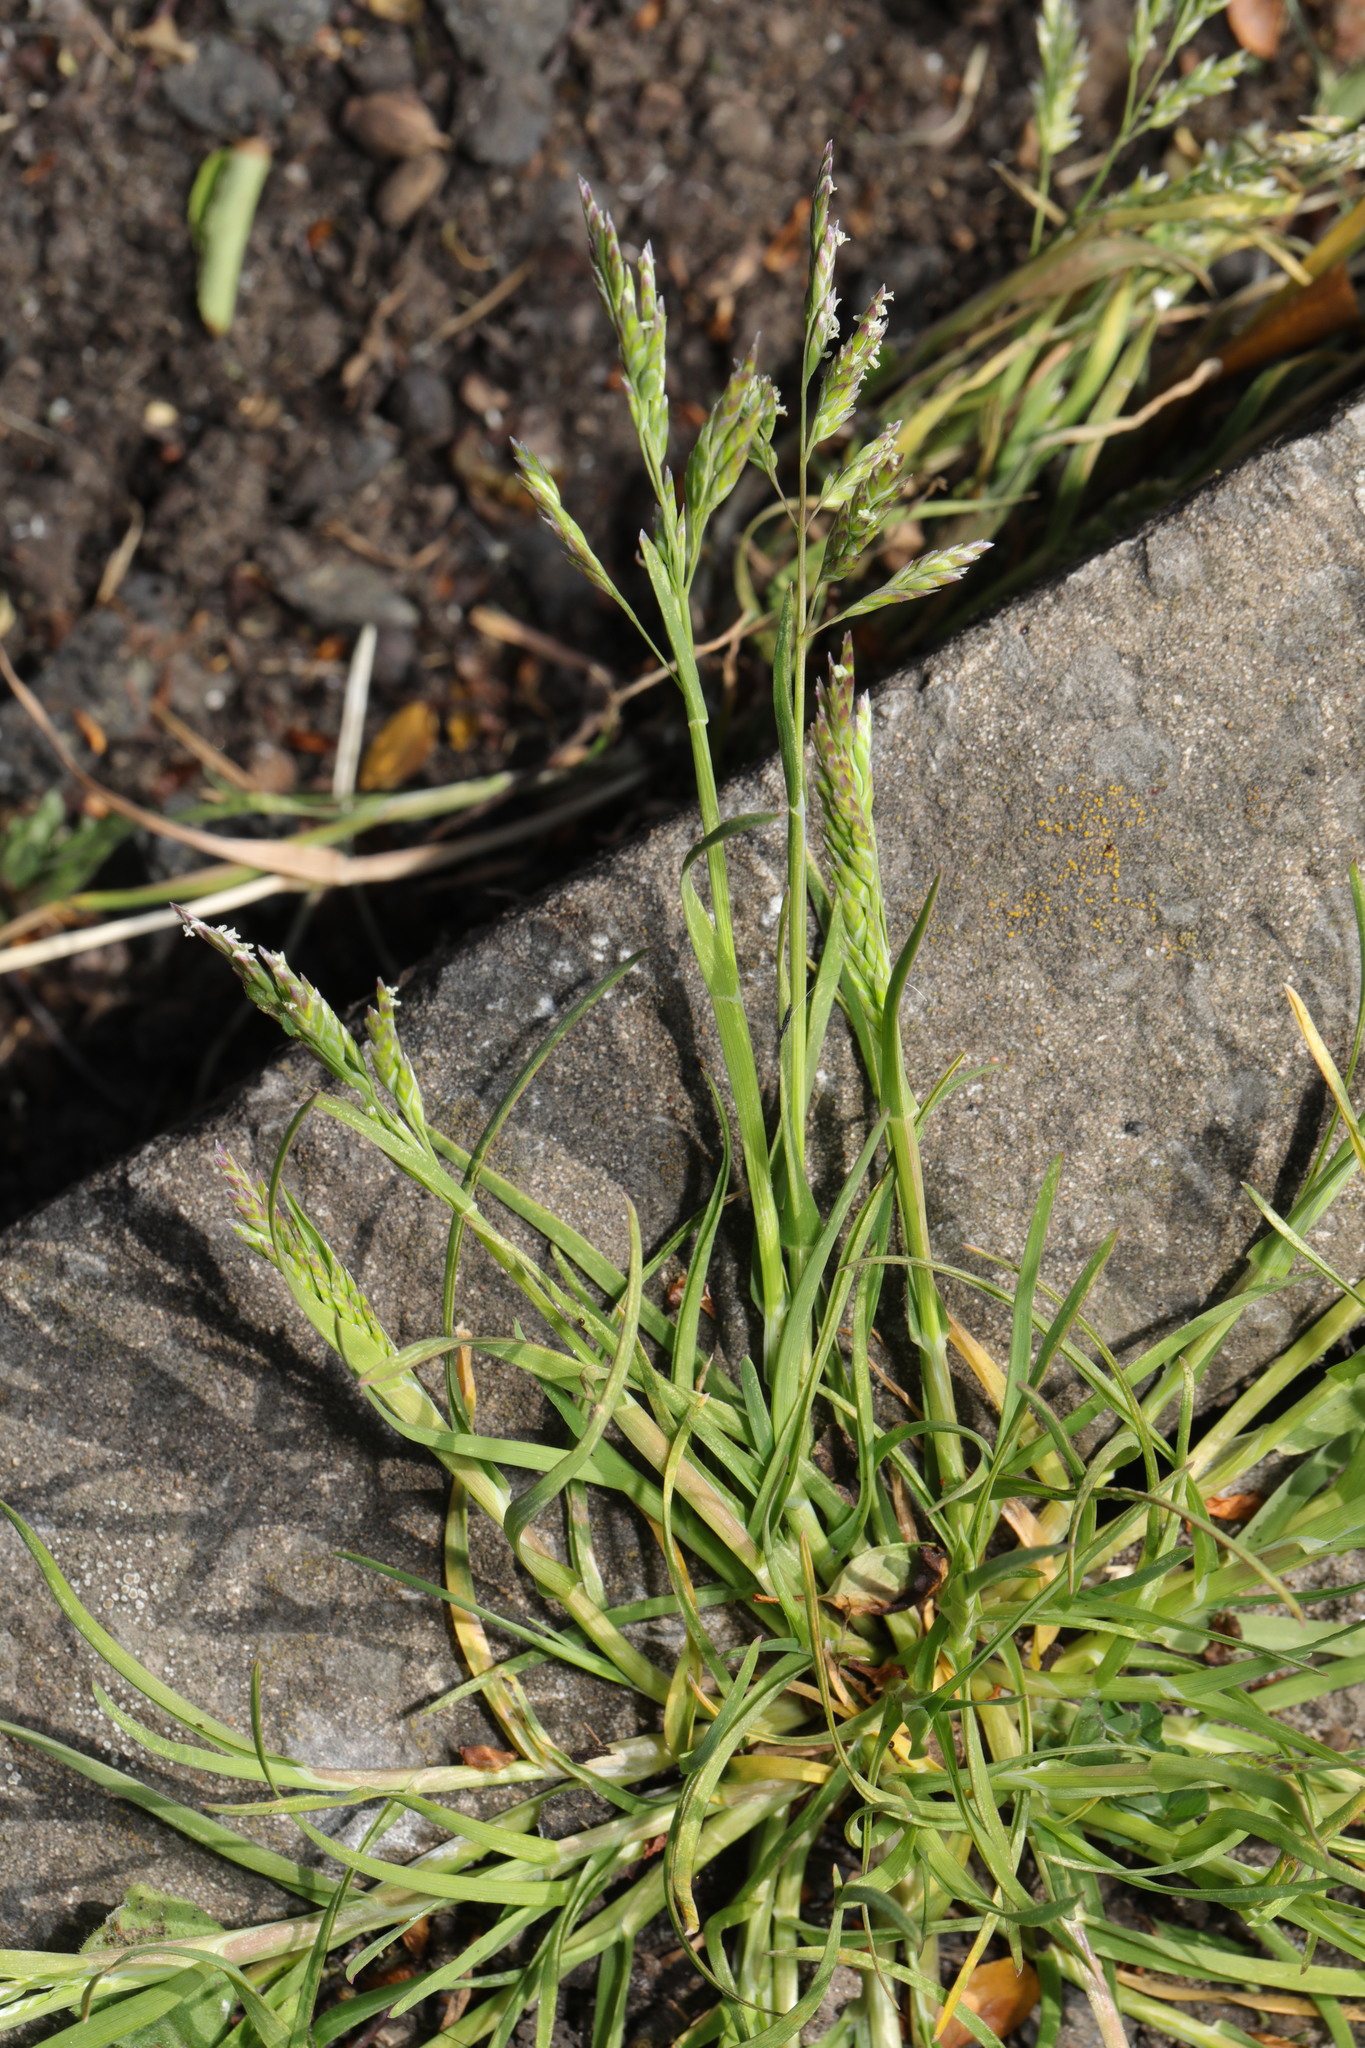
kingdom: Plantae
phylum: Tracheophyta
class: Liliopsida
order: Poales
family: Poaceae
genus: Poa
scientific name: Poa annua
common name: Annual bluegrass
